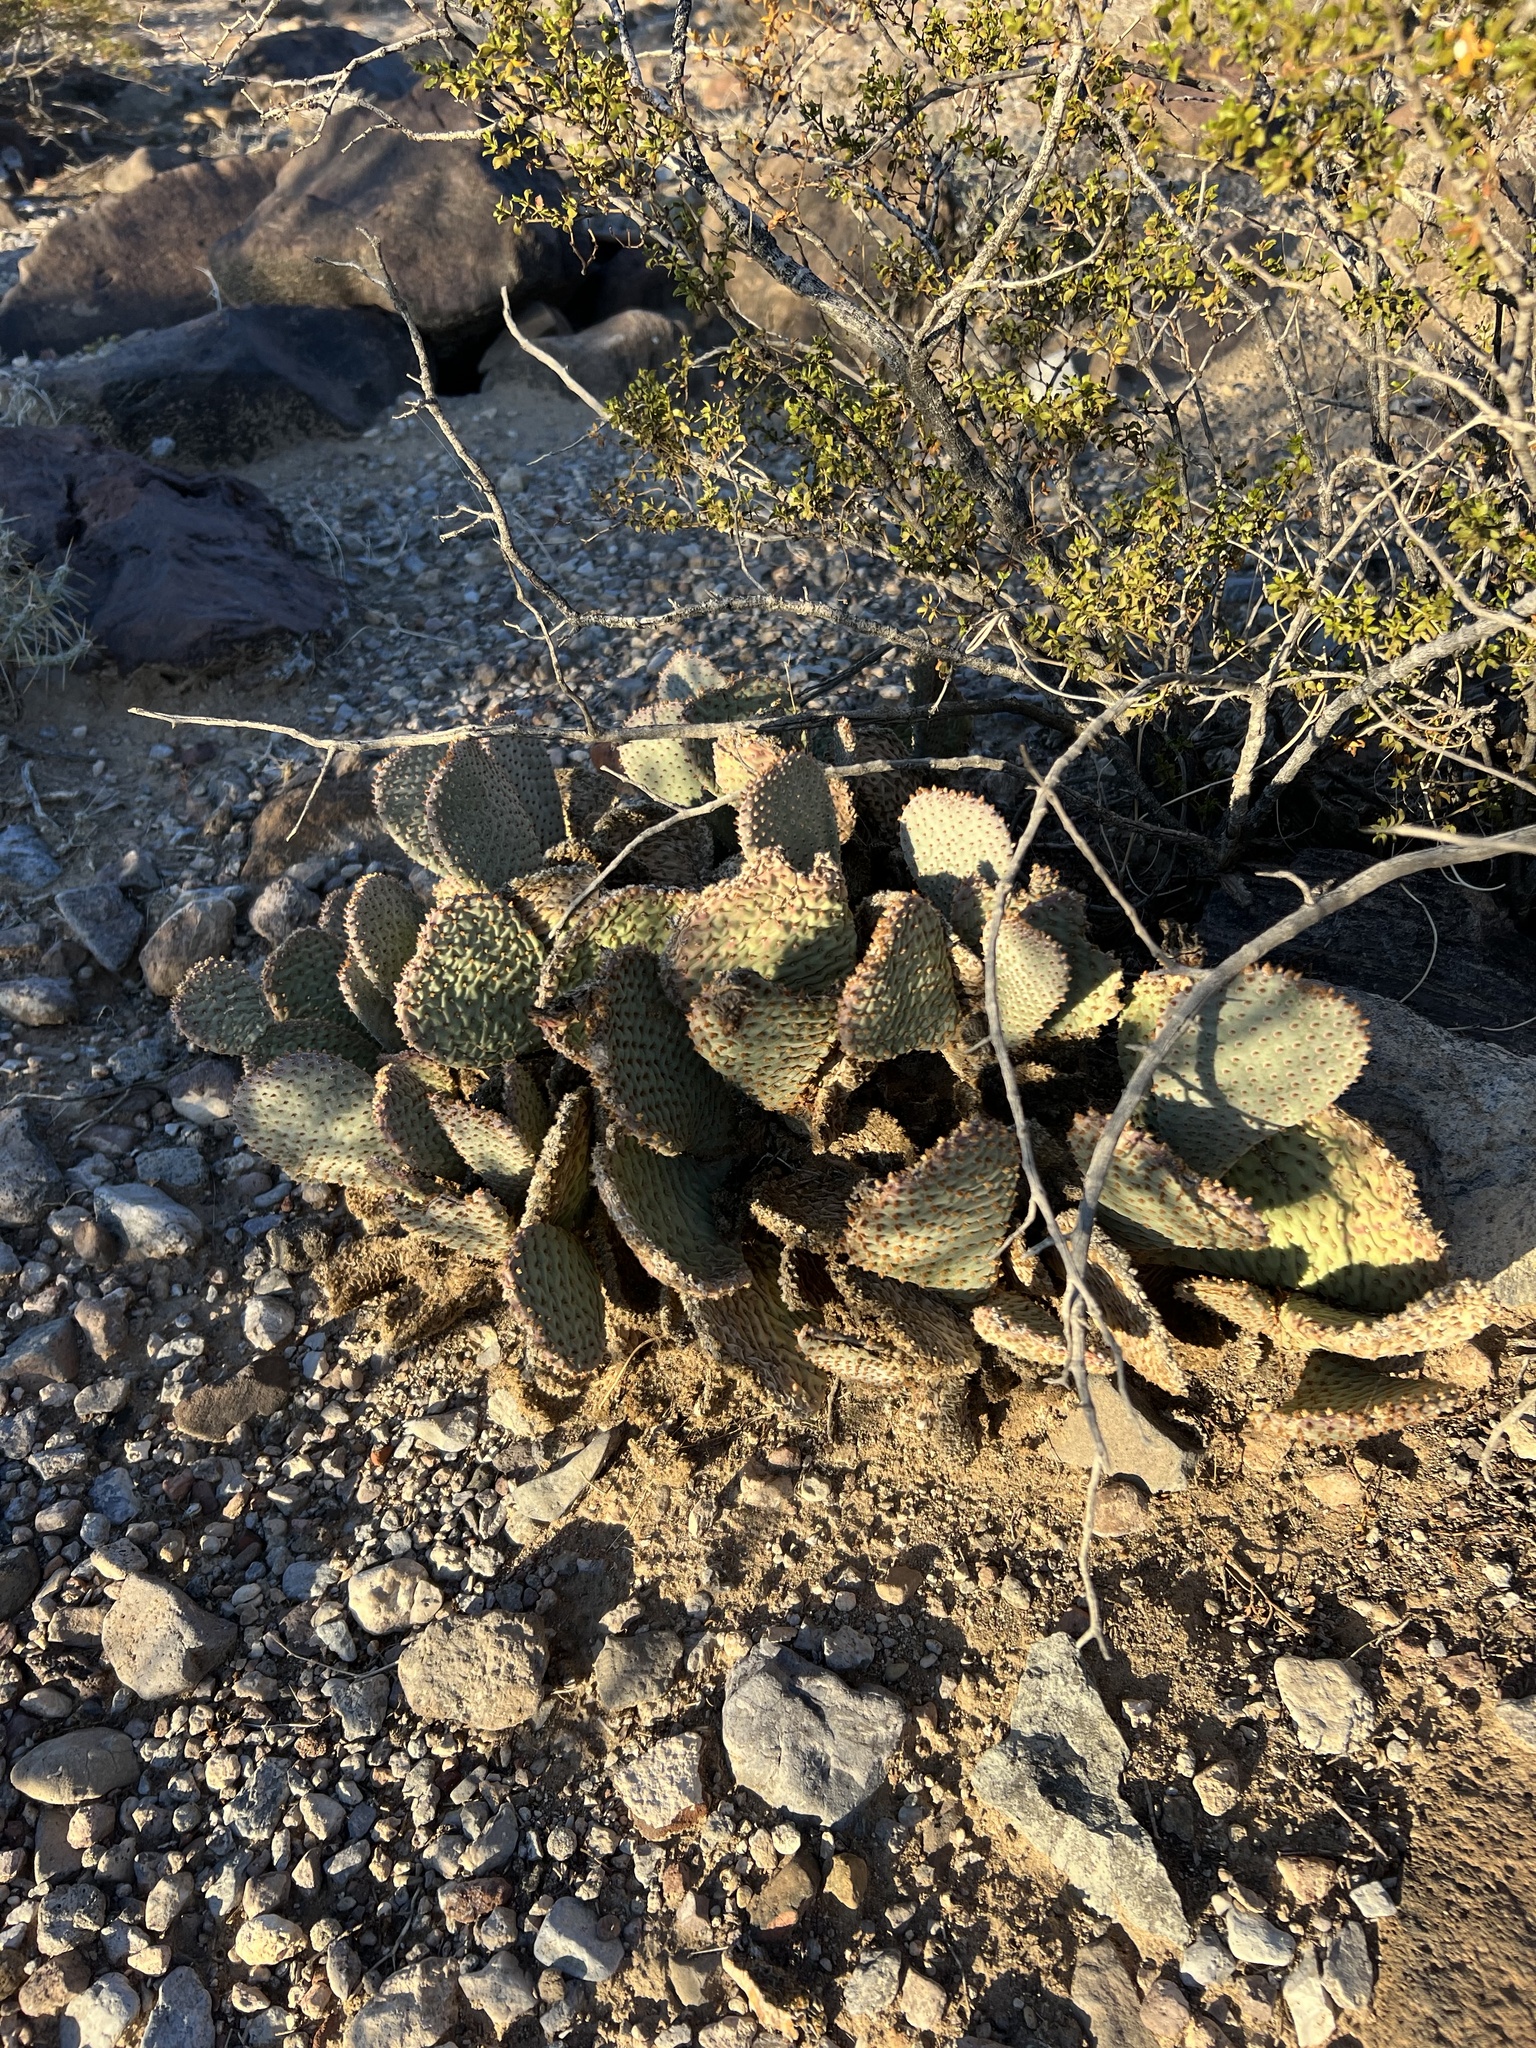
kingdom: Plantae
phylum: Tracheophyta
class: Magnoliopsida
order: Caryophyllales
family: Cactaceae
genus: Opuntia
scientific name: Opuntia basilaris
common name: Beavertail prickly-pear
